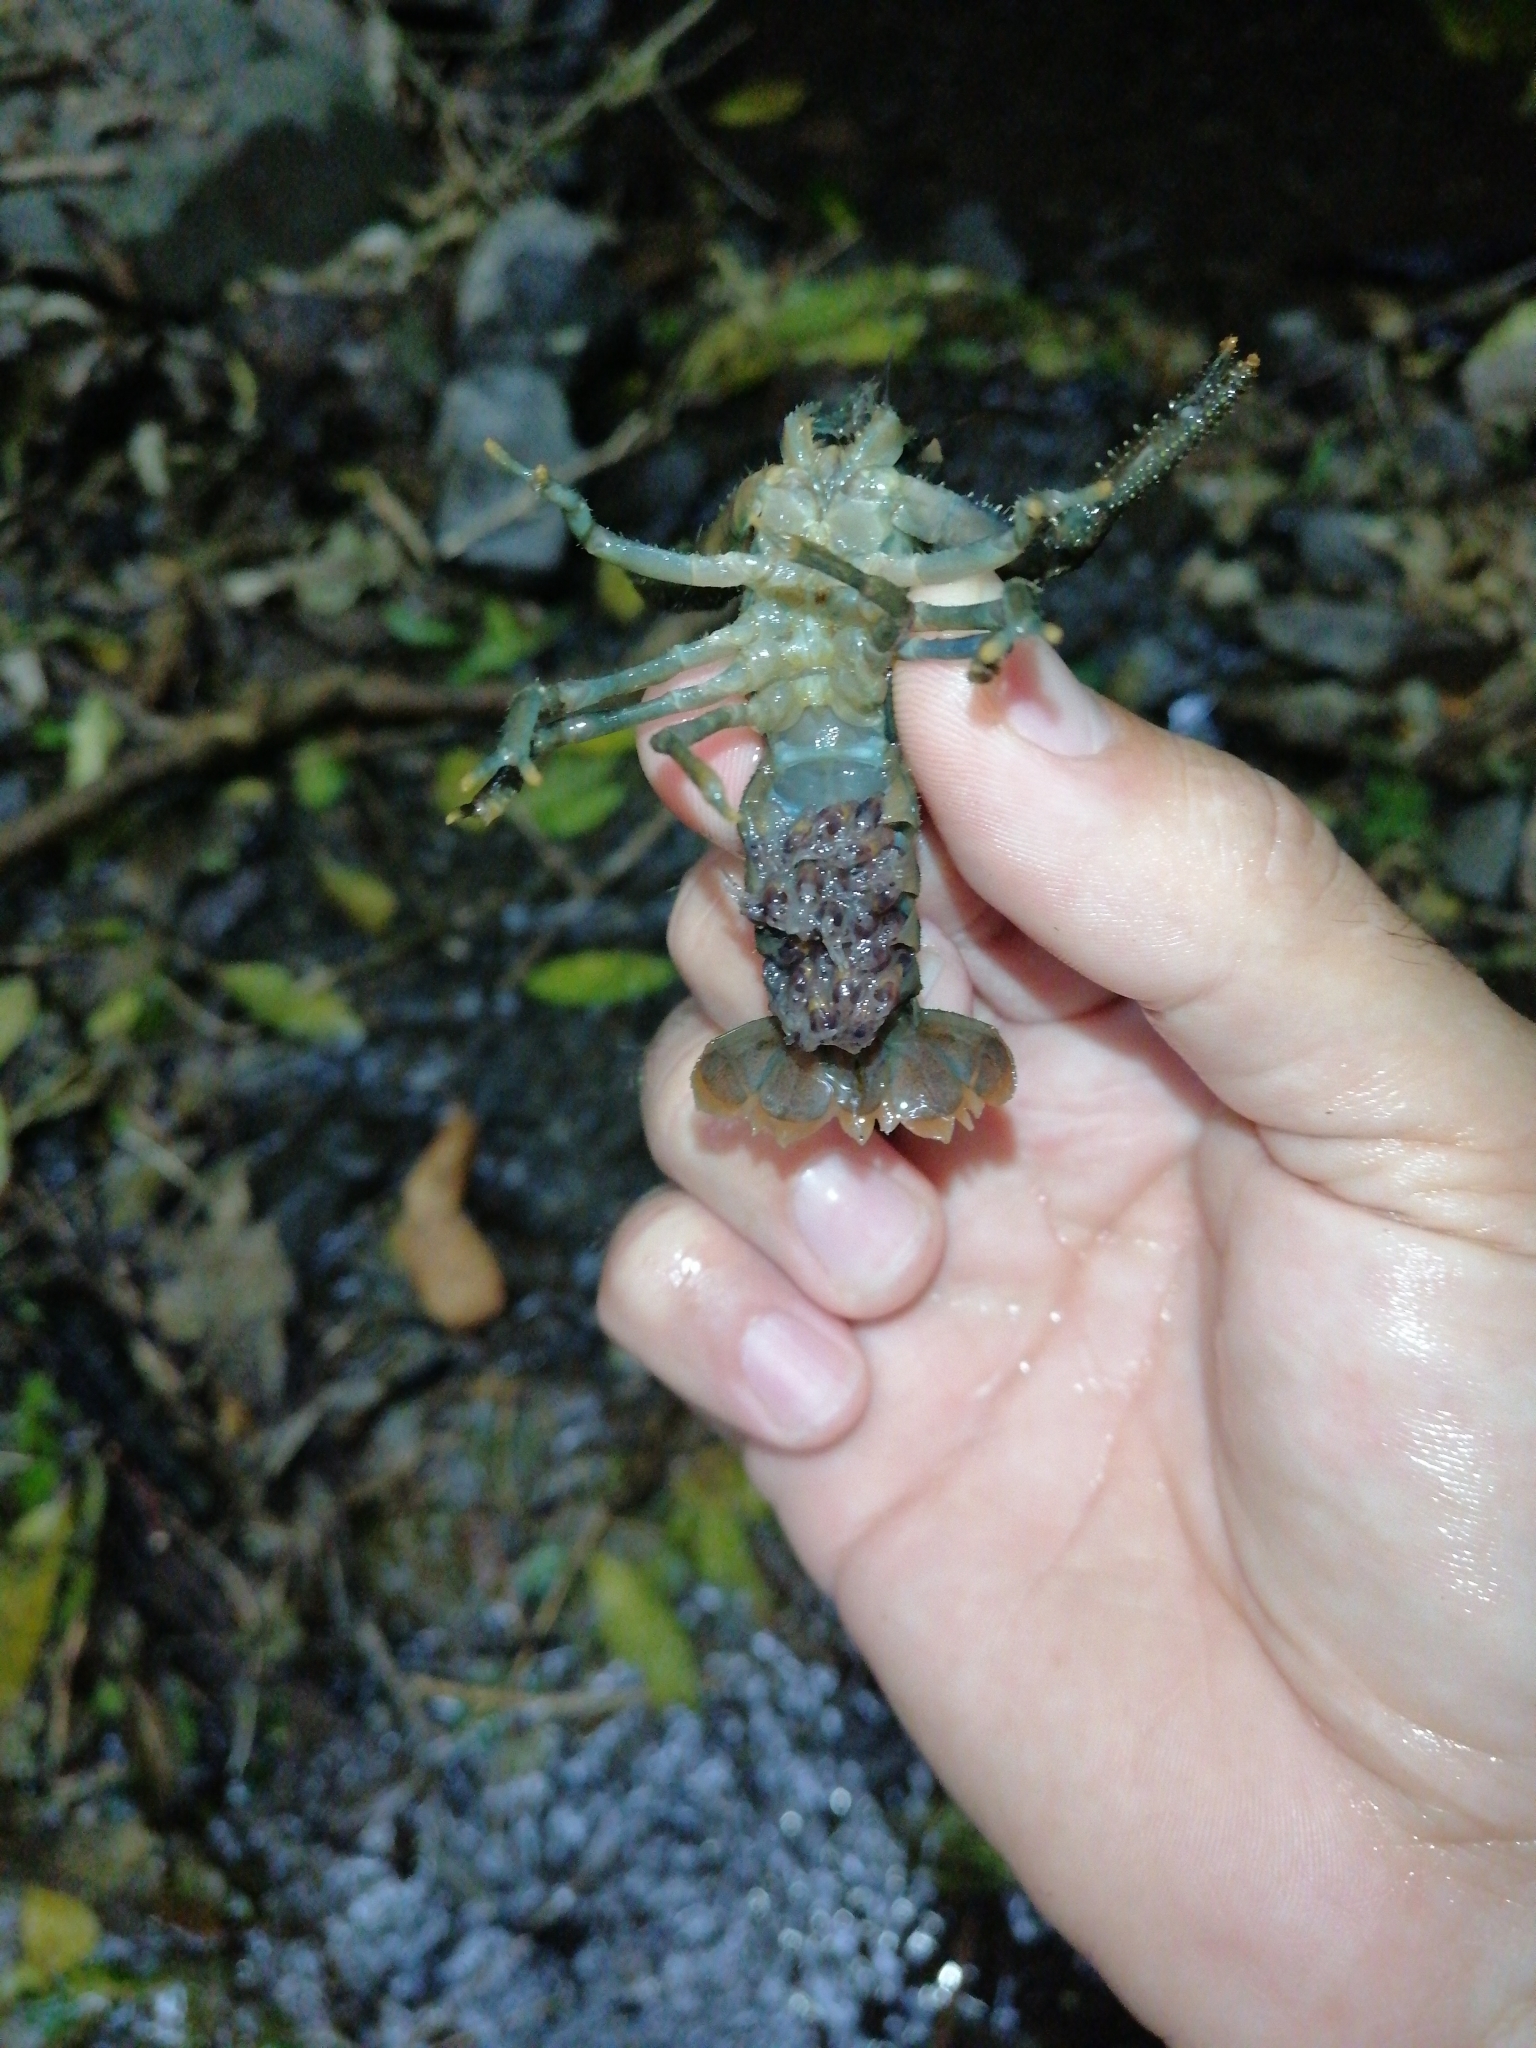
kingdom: Animalia
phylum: Arthropoda
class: Malacostraca
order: Decapoda
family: Parastacidae
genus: Paranephrops
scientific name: Paranephrops planifrons
